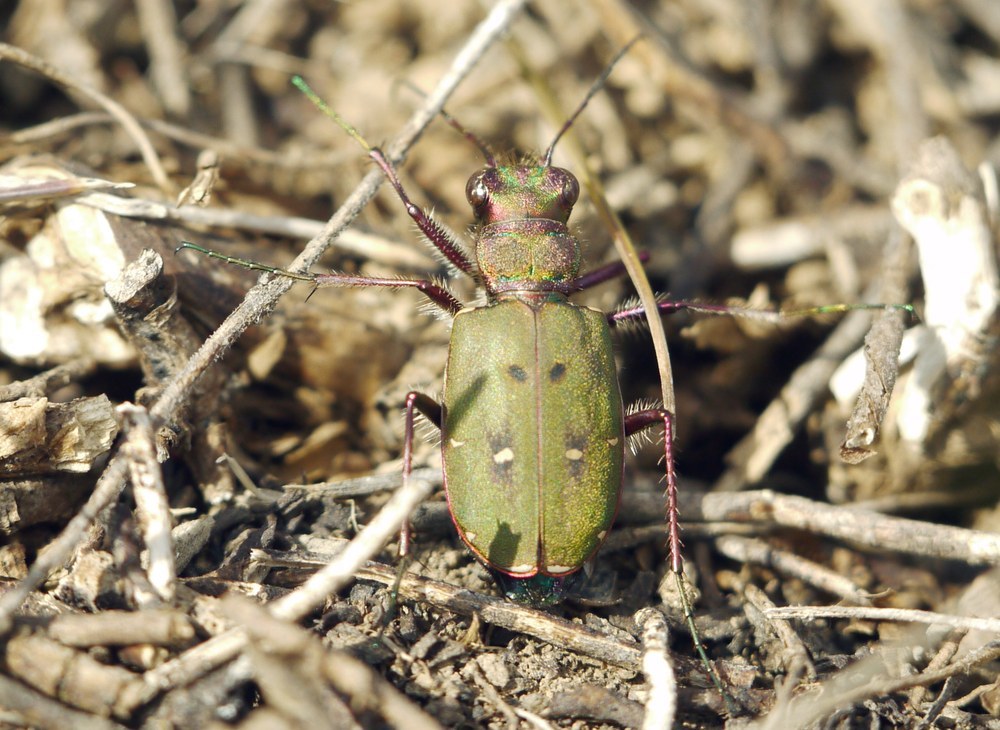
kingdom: Animalia
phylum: Arthropoda
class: Insecta
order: Coleoptera
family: Carabidae
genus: Cicindela
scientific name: Cicindela campestris
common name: Common tiger beetle
